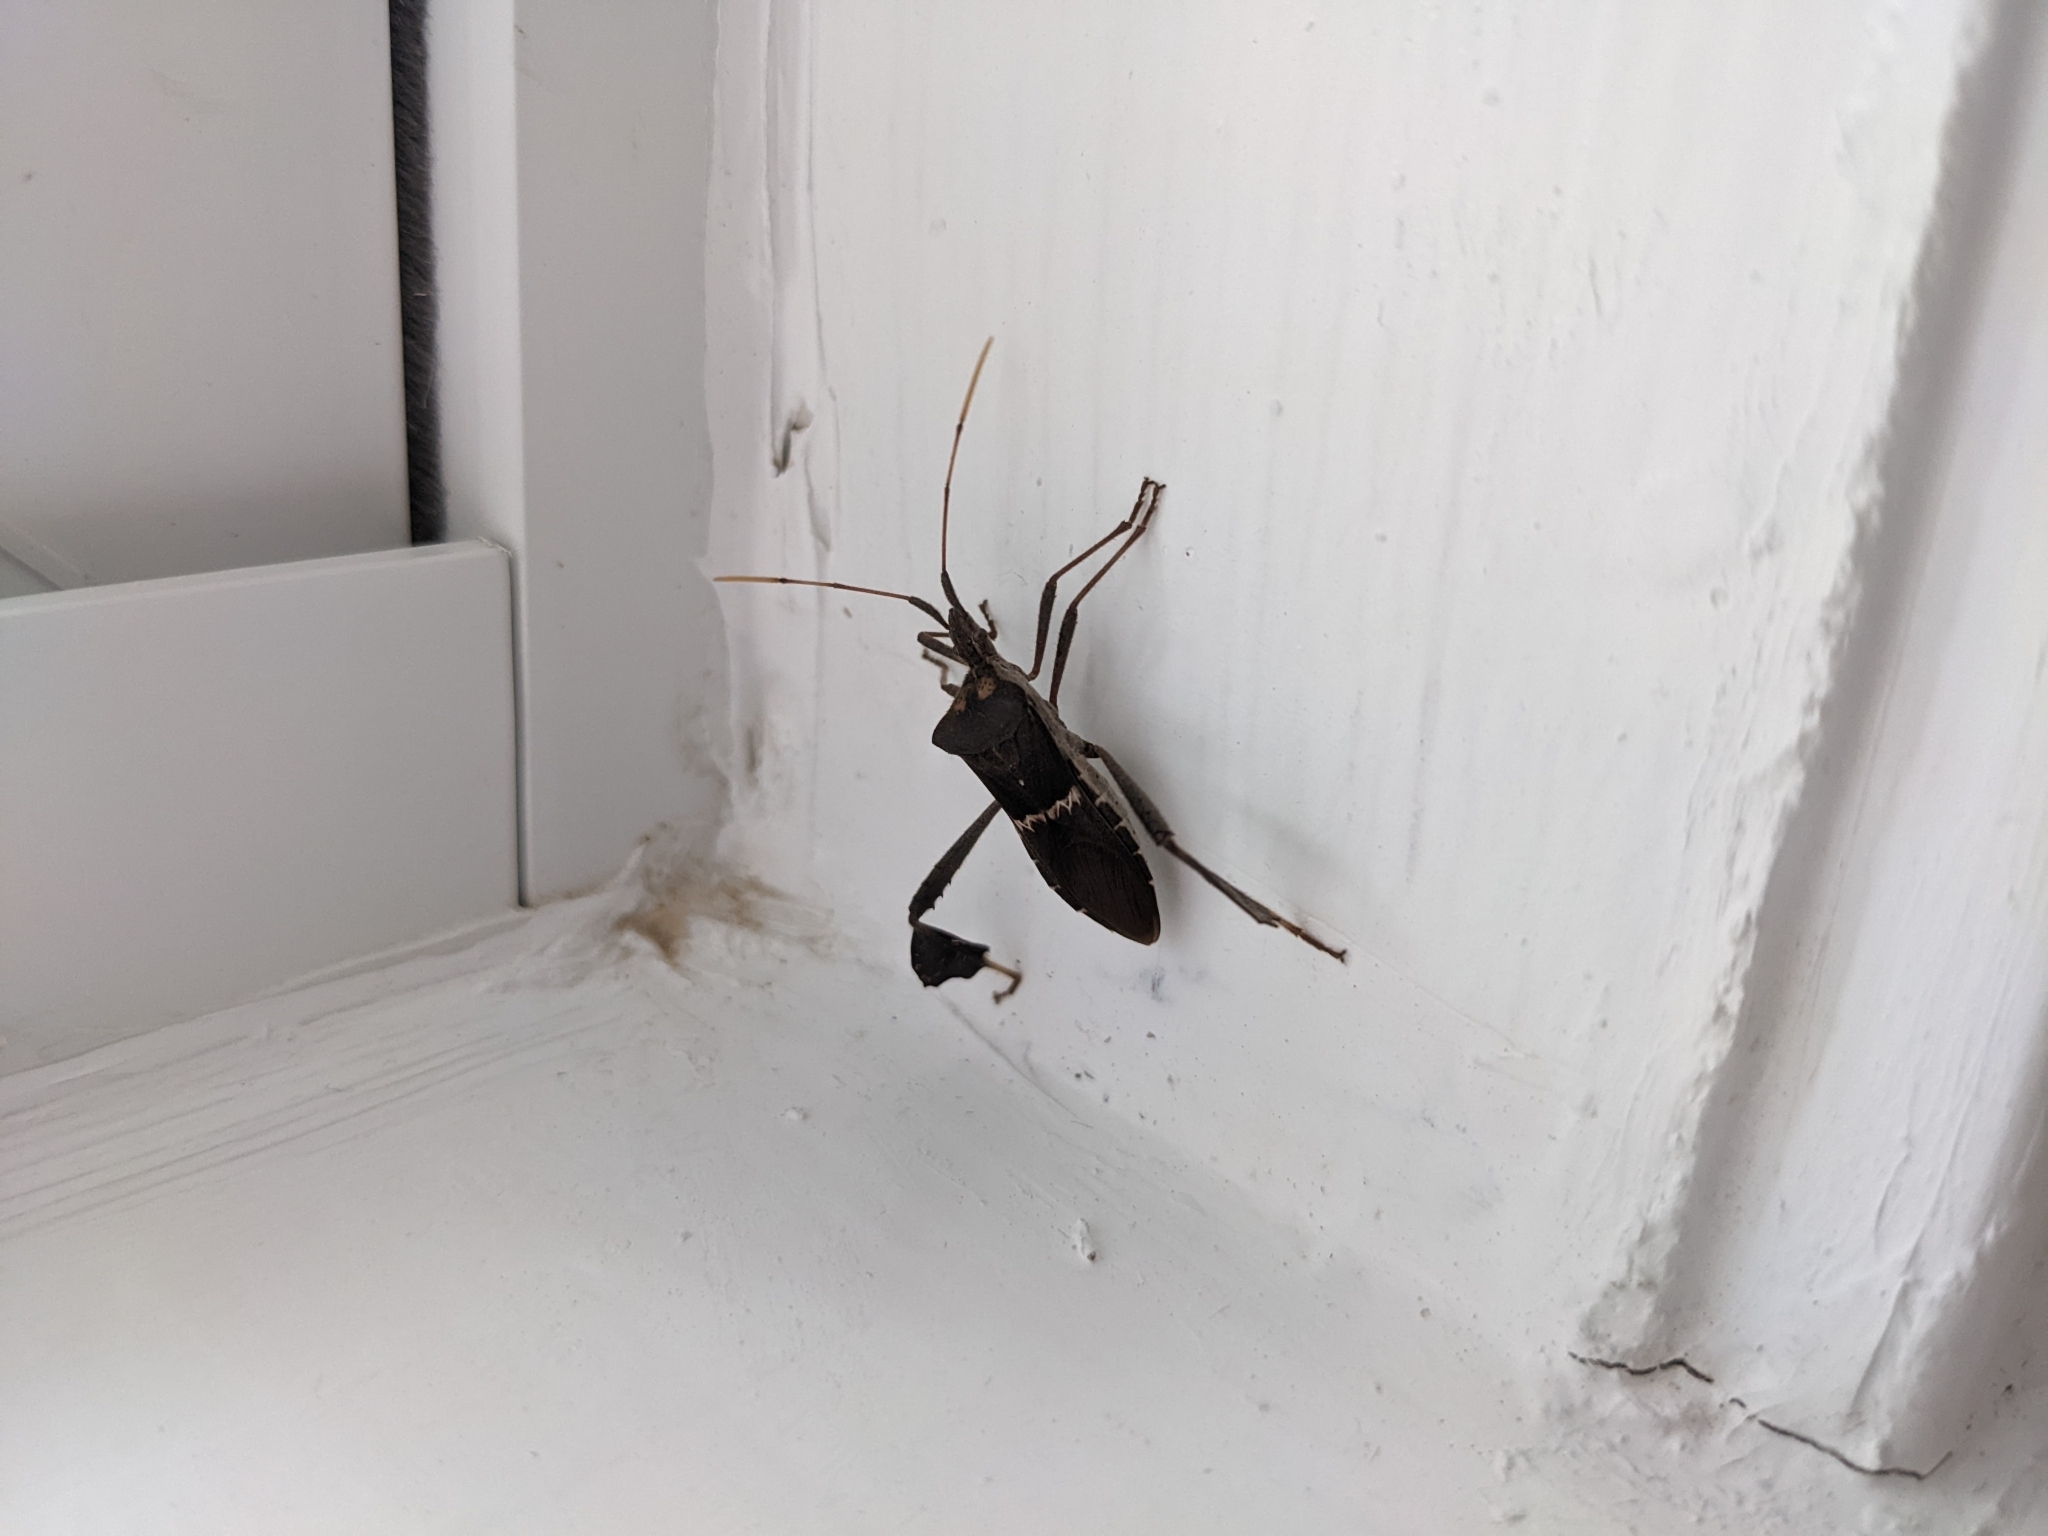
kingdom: Animalia
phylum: Arthropoda
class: Insecta
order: Hemiptera
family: Coreidae
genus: Leptoglossus
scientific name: Leptoglossus zonatus
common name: Large-legged bug
